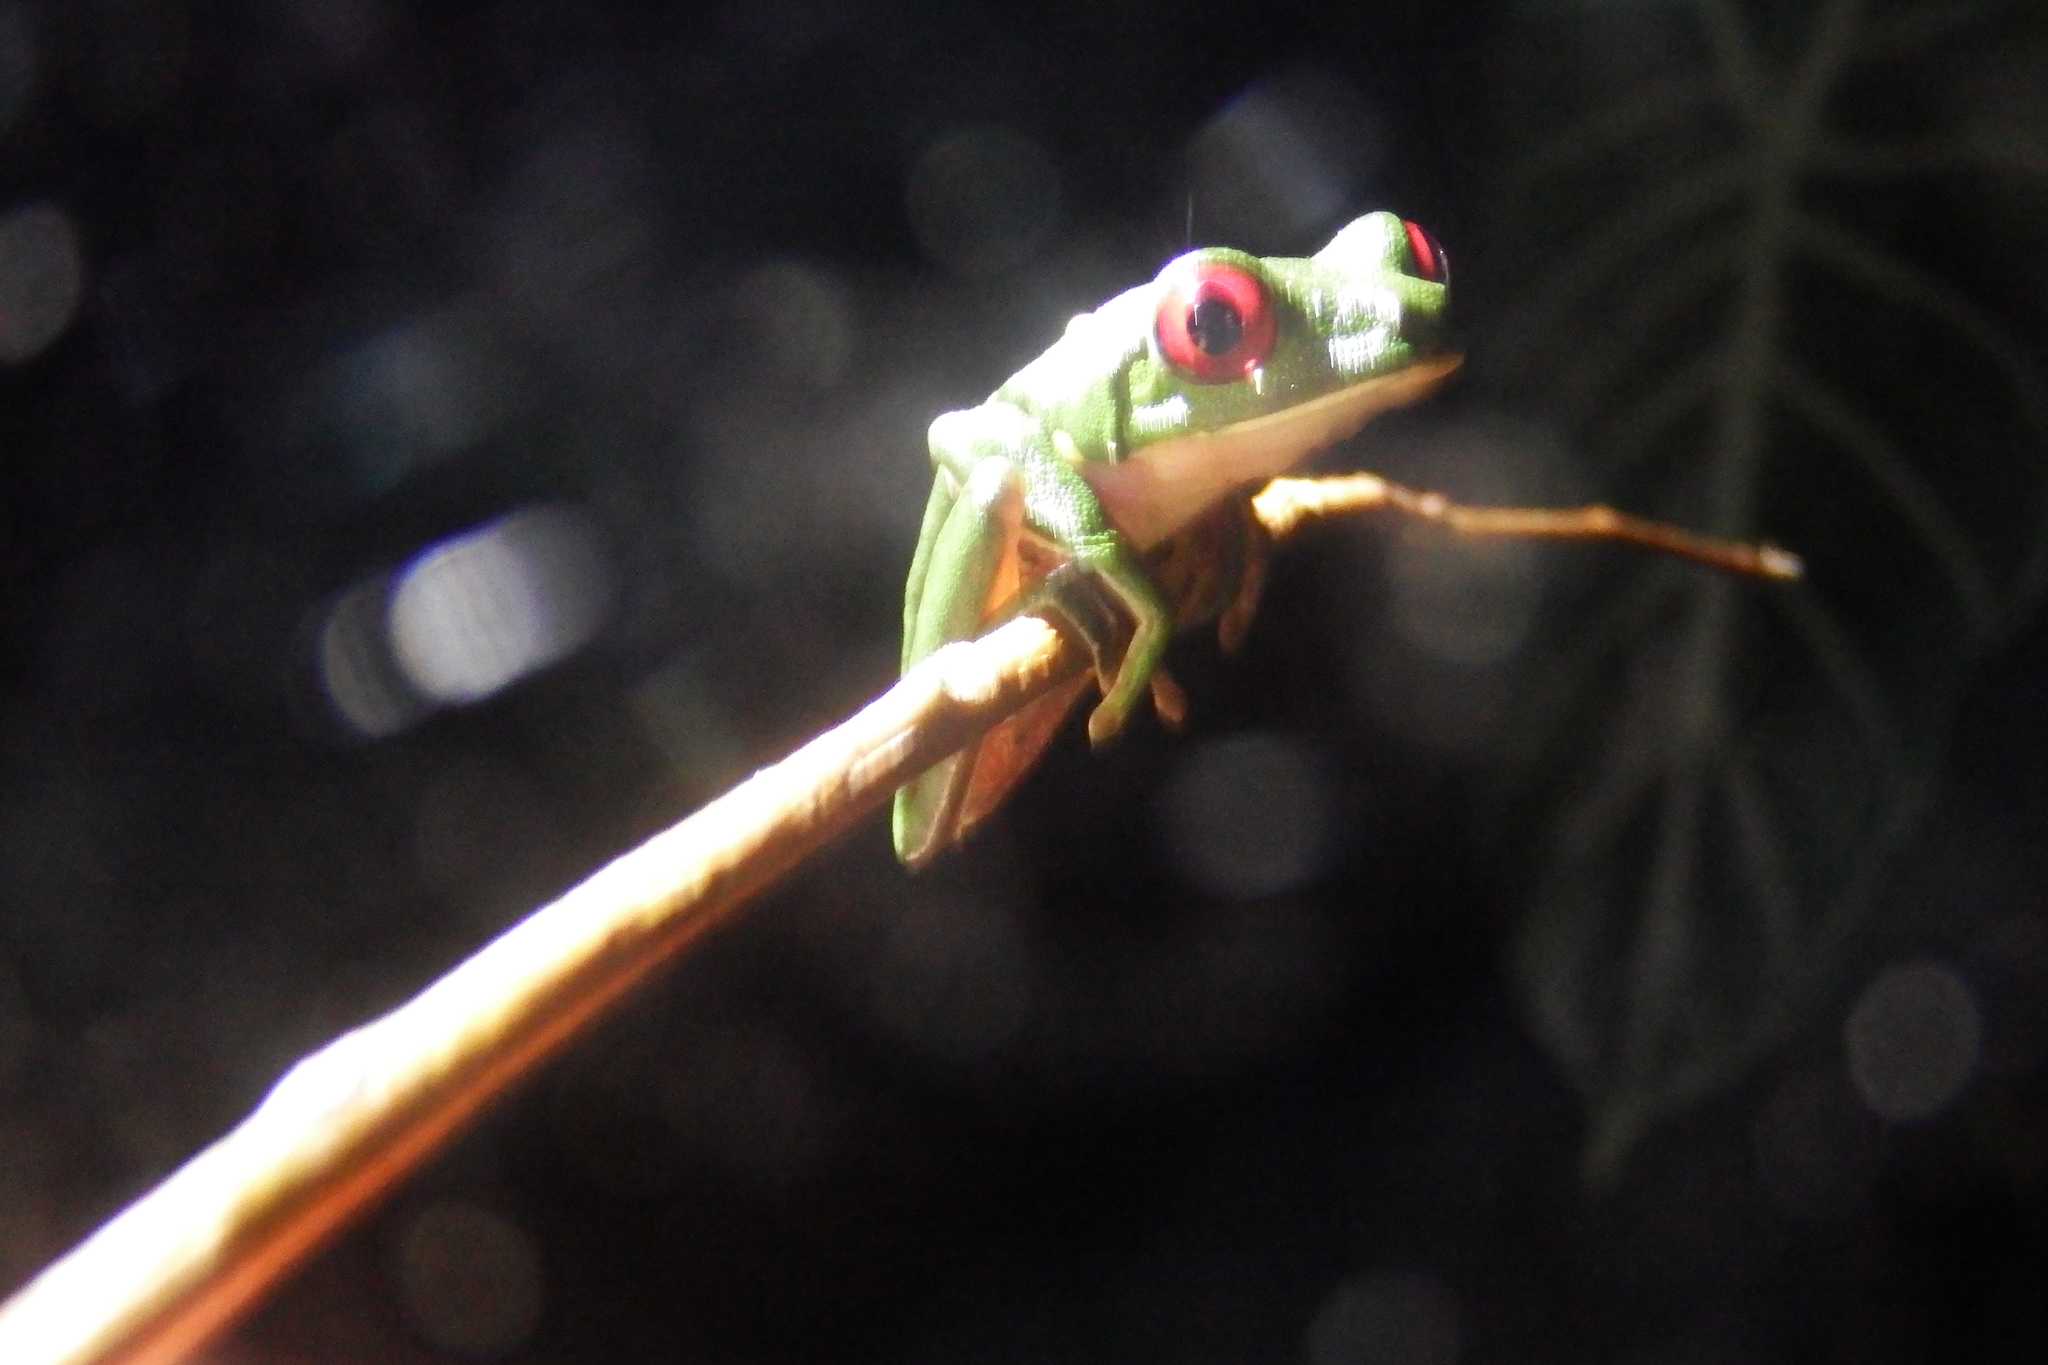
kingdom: Animalia
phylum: Chordata
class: Amphibia
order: Anura
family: Phyllomedusidae
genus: Agalychnis
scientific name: Agalychnis callidryas
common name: Red-eyed treefrog
